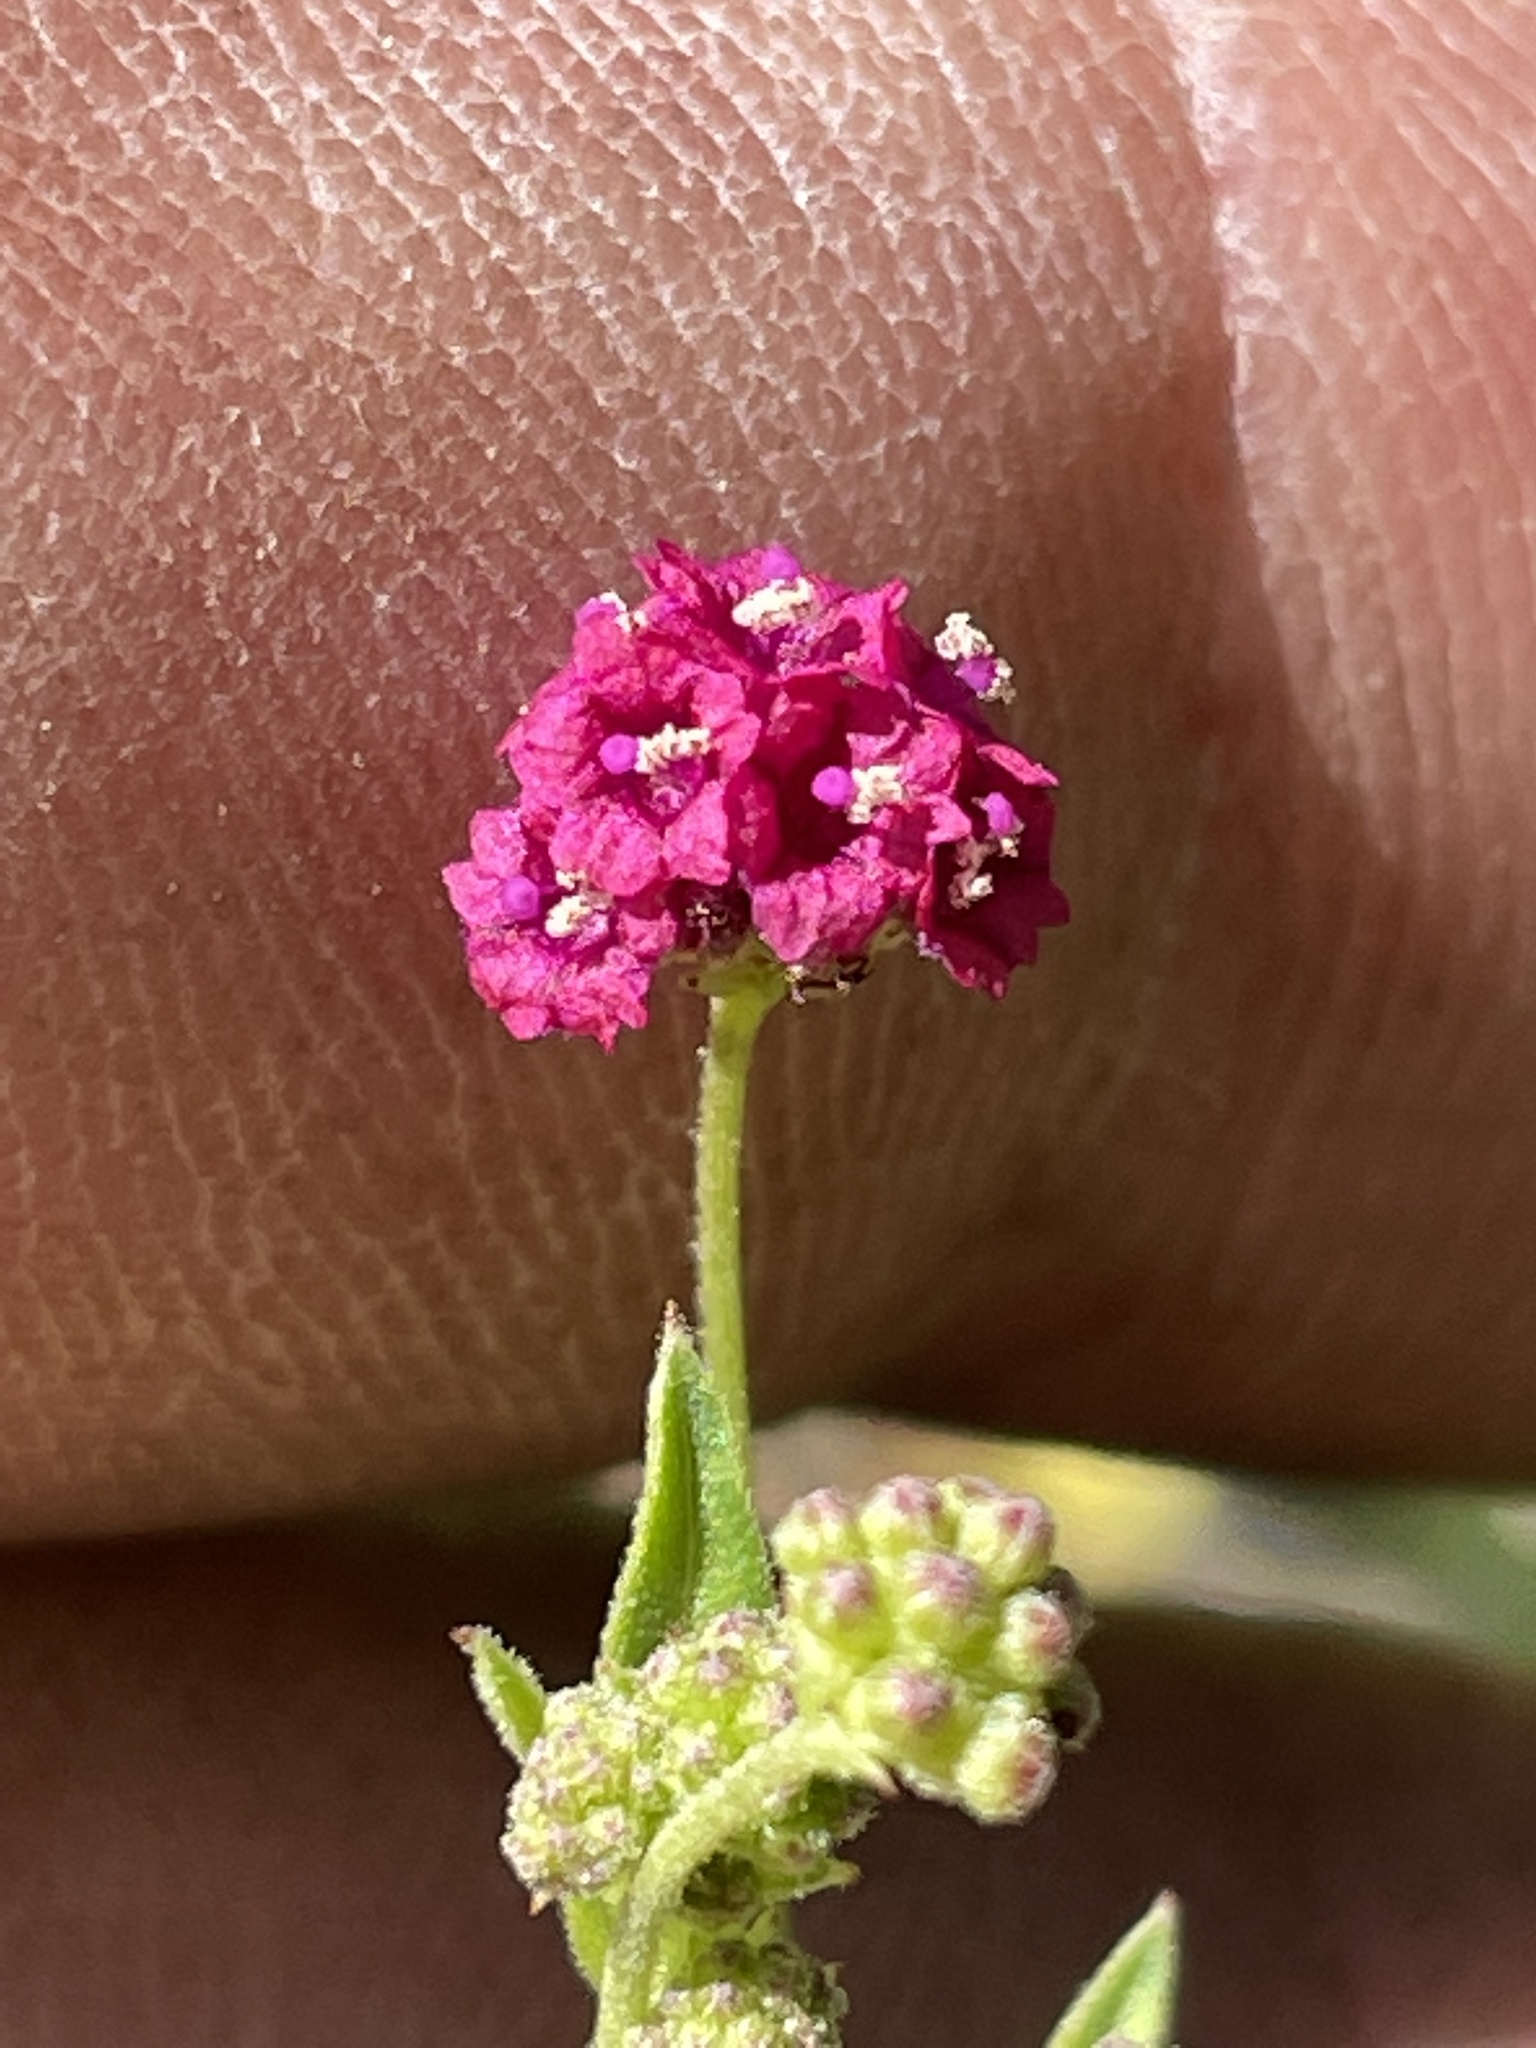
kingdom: Plantae
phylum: Tracheophyta
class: Magnoliopsida
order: Caryophyllales
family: Nyctaginaceae
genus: Boerhavia
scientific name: Boerhavia coccinea
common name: Scarlet spiderling
